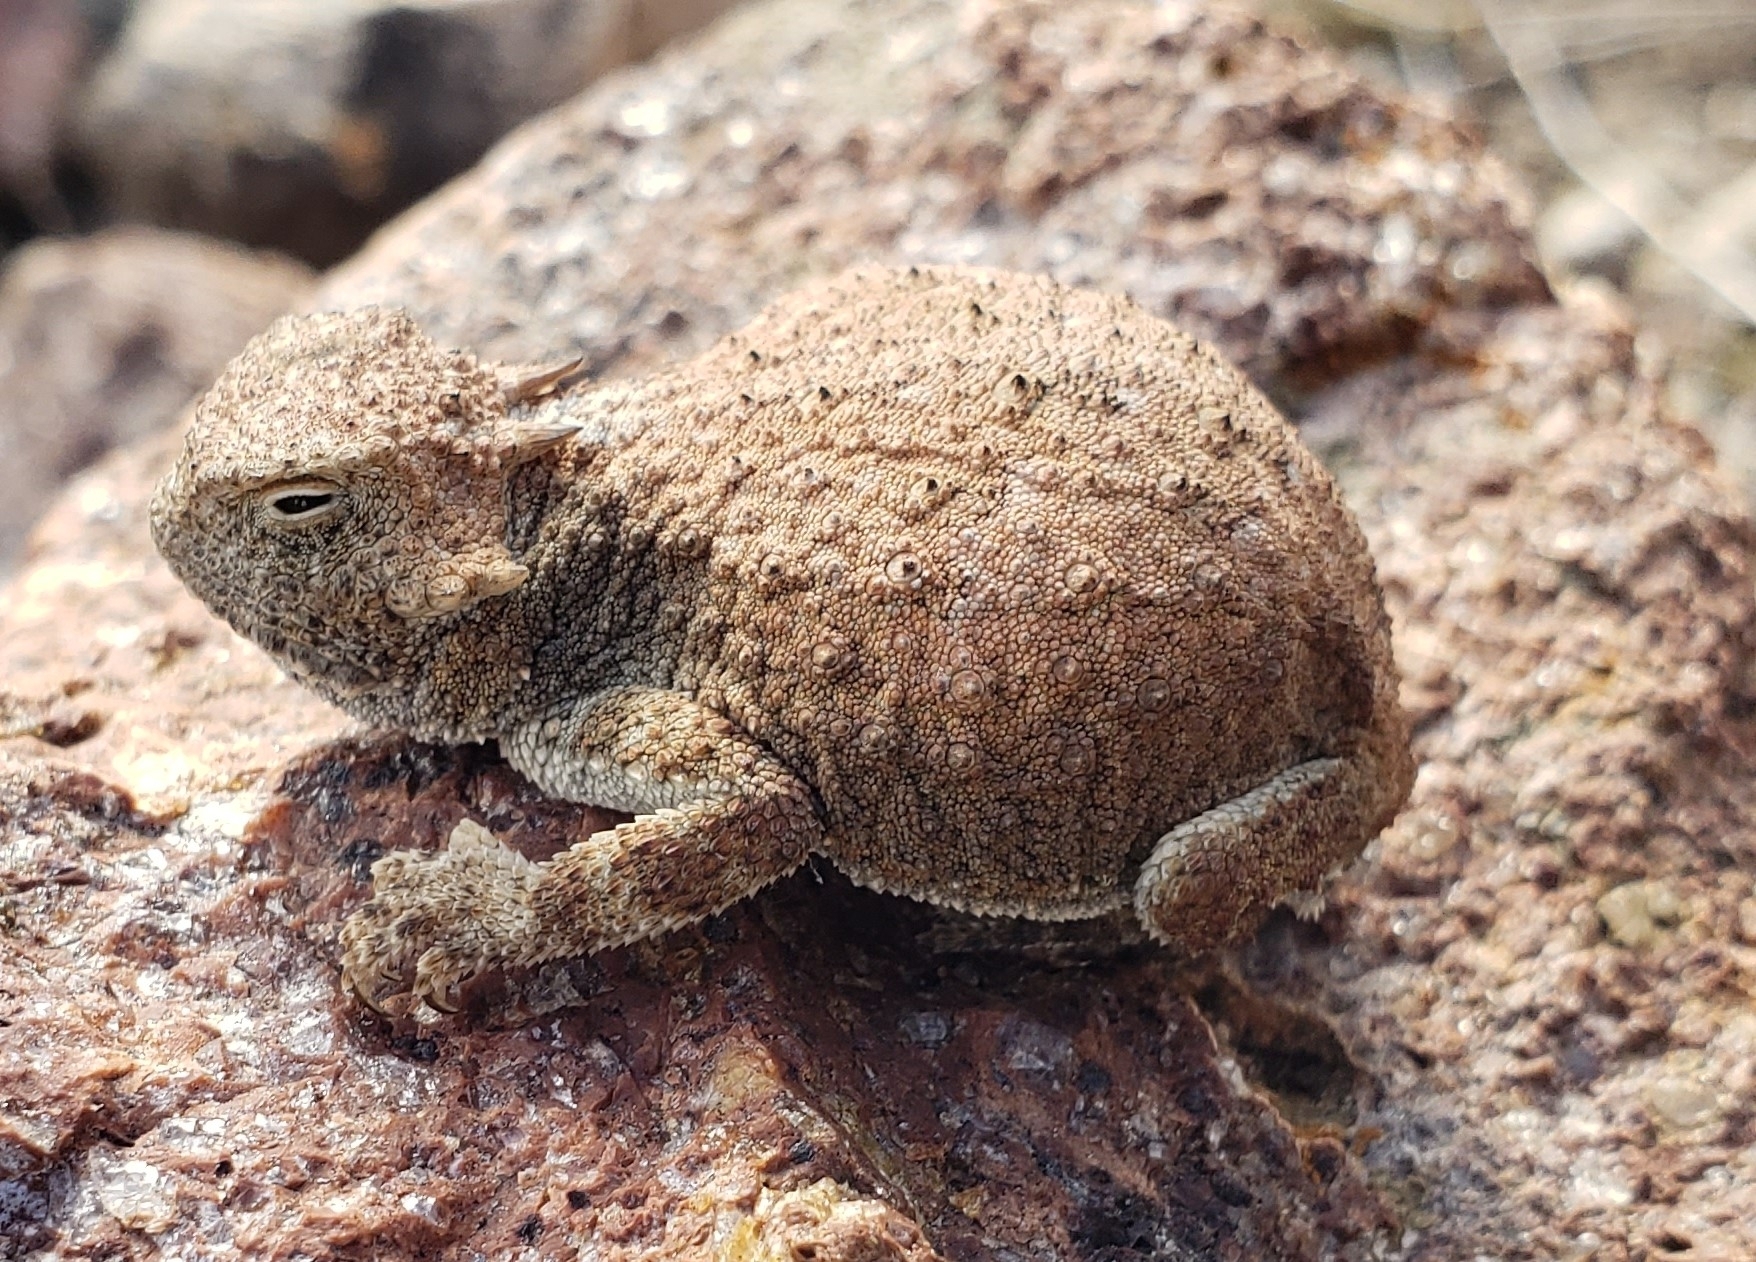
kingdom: Animalia
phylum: Chordata
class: Squamata
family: Phrynosomatidae
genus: Phrynosoma
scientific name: Phrynosoma modestum
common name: Roundtail horned lizard
